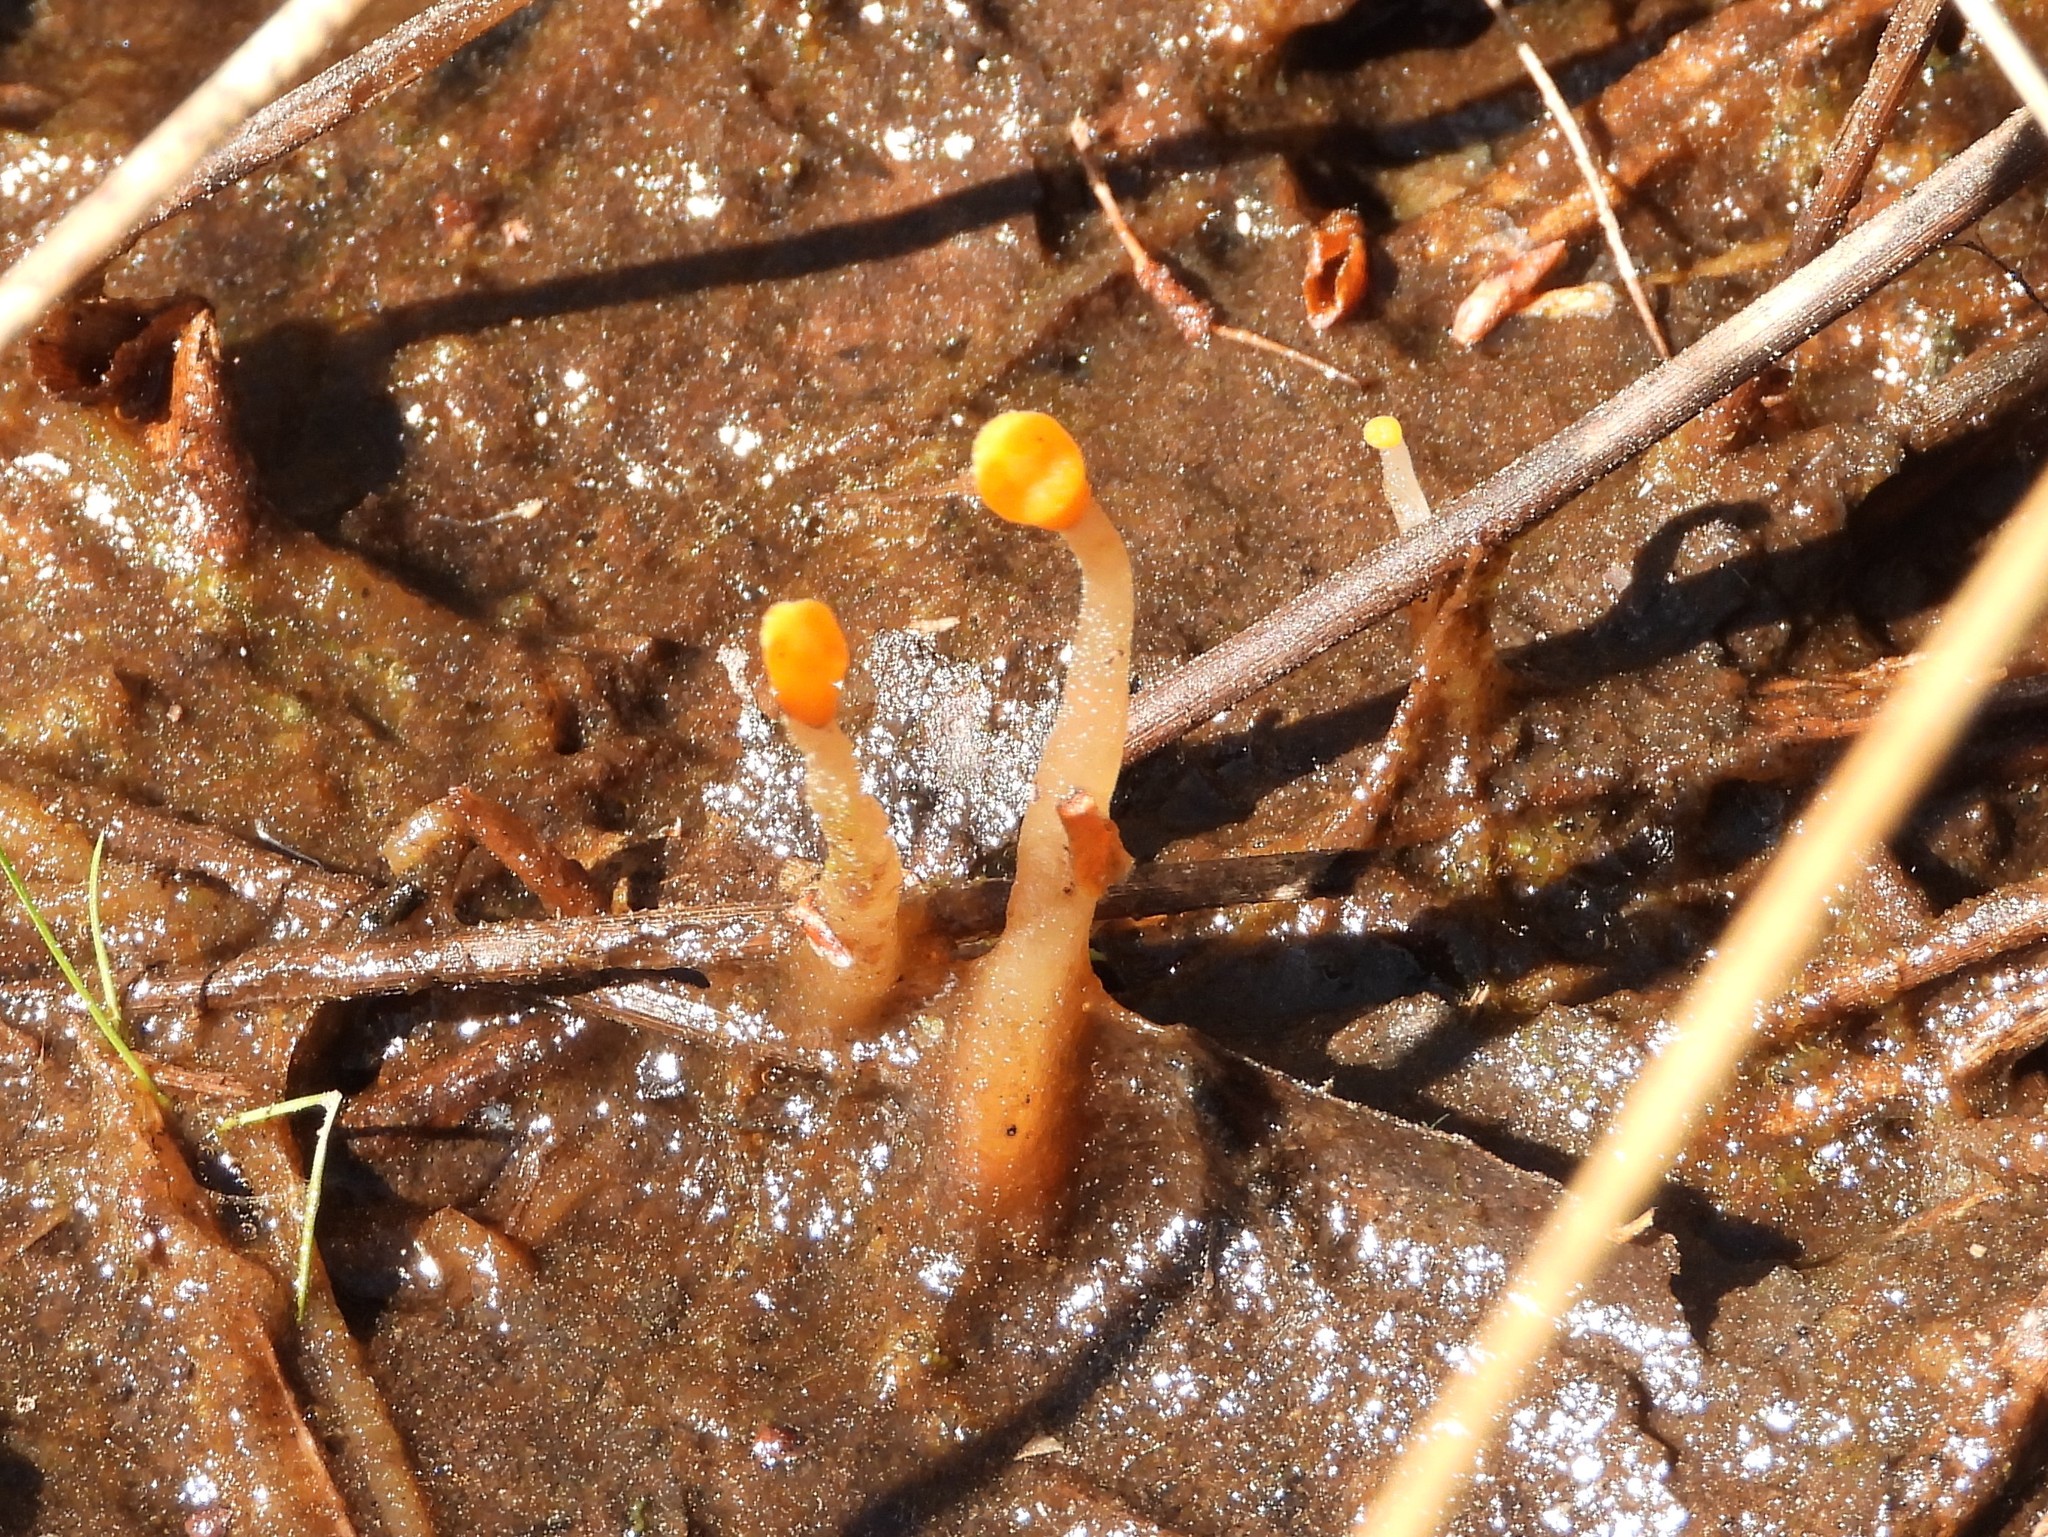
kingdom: Fungi
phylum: Ascomycota
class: Leotiomycetes
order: Helotiales
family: Cenangiaceae
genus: Mitrula
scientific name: Mitrula paludosa
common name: Bog beacon
